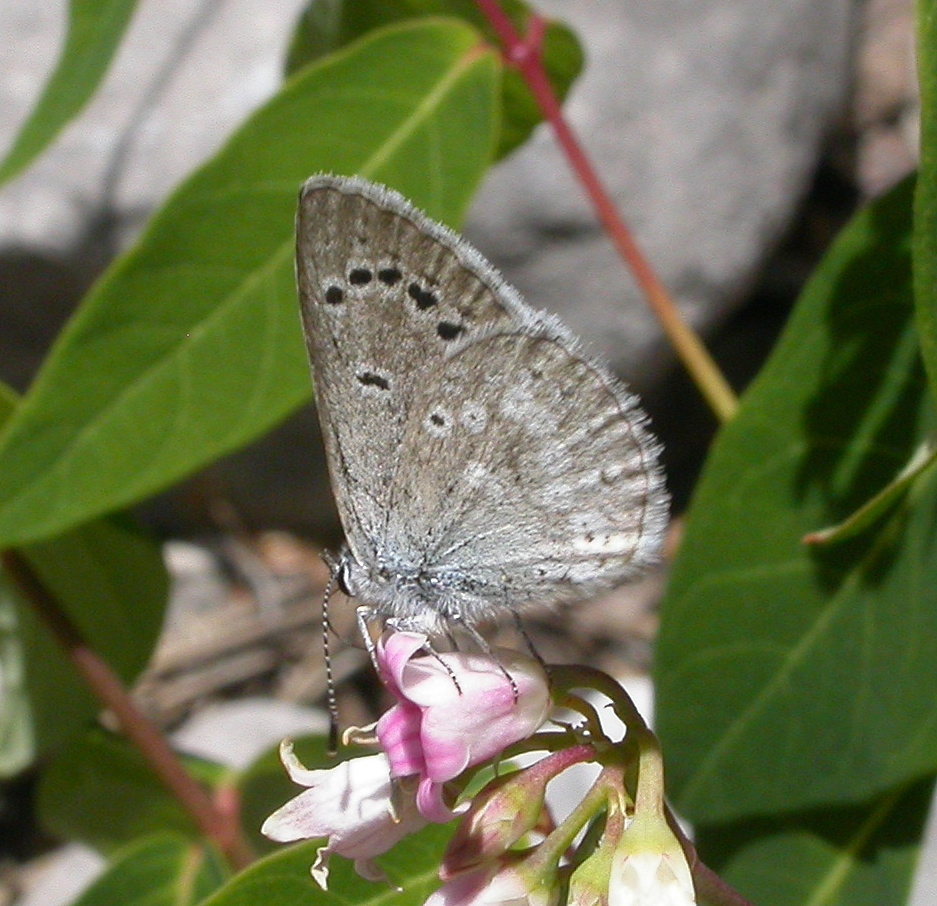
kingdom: Animalia
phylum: Arthropoda
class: Insecta
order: Lepidoptera
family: Lycaenidae
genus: Icaricia
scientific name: Icaricia icarioides
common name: Boisduval's blue
